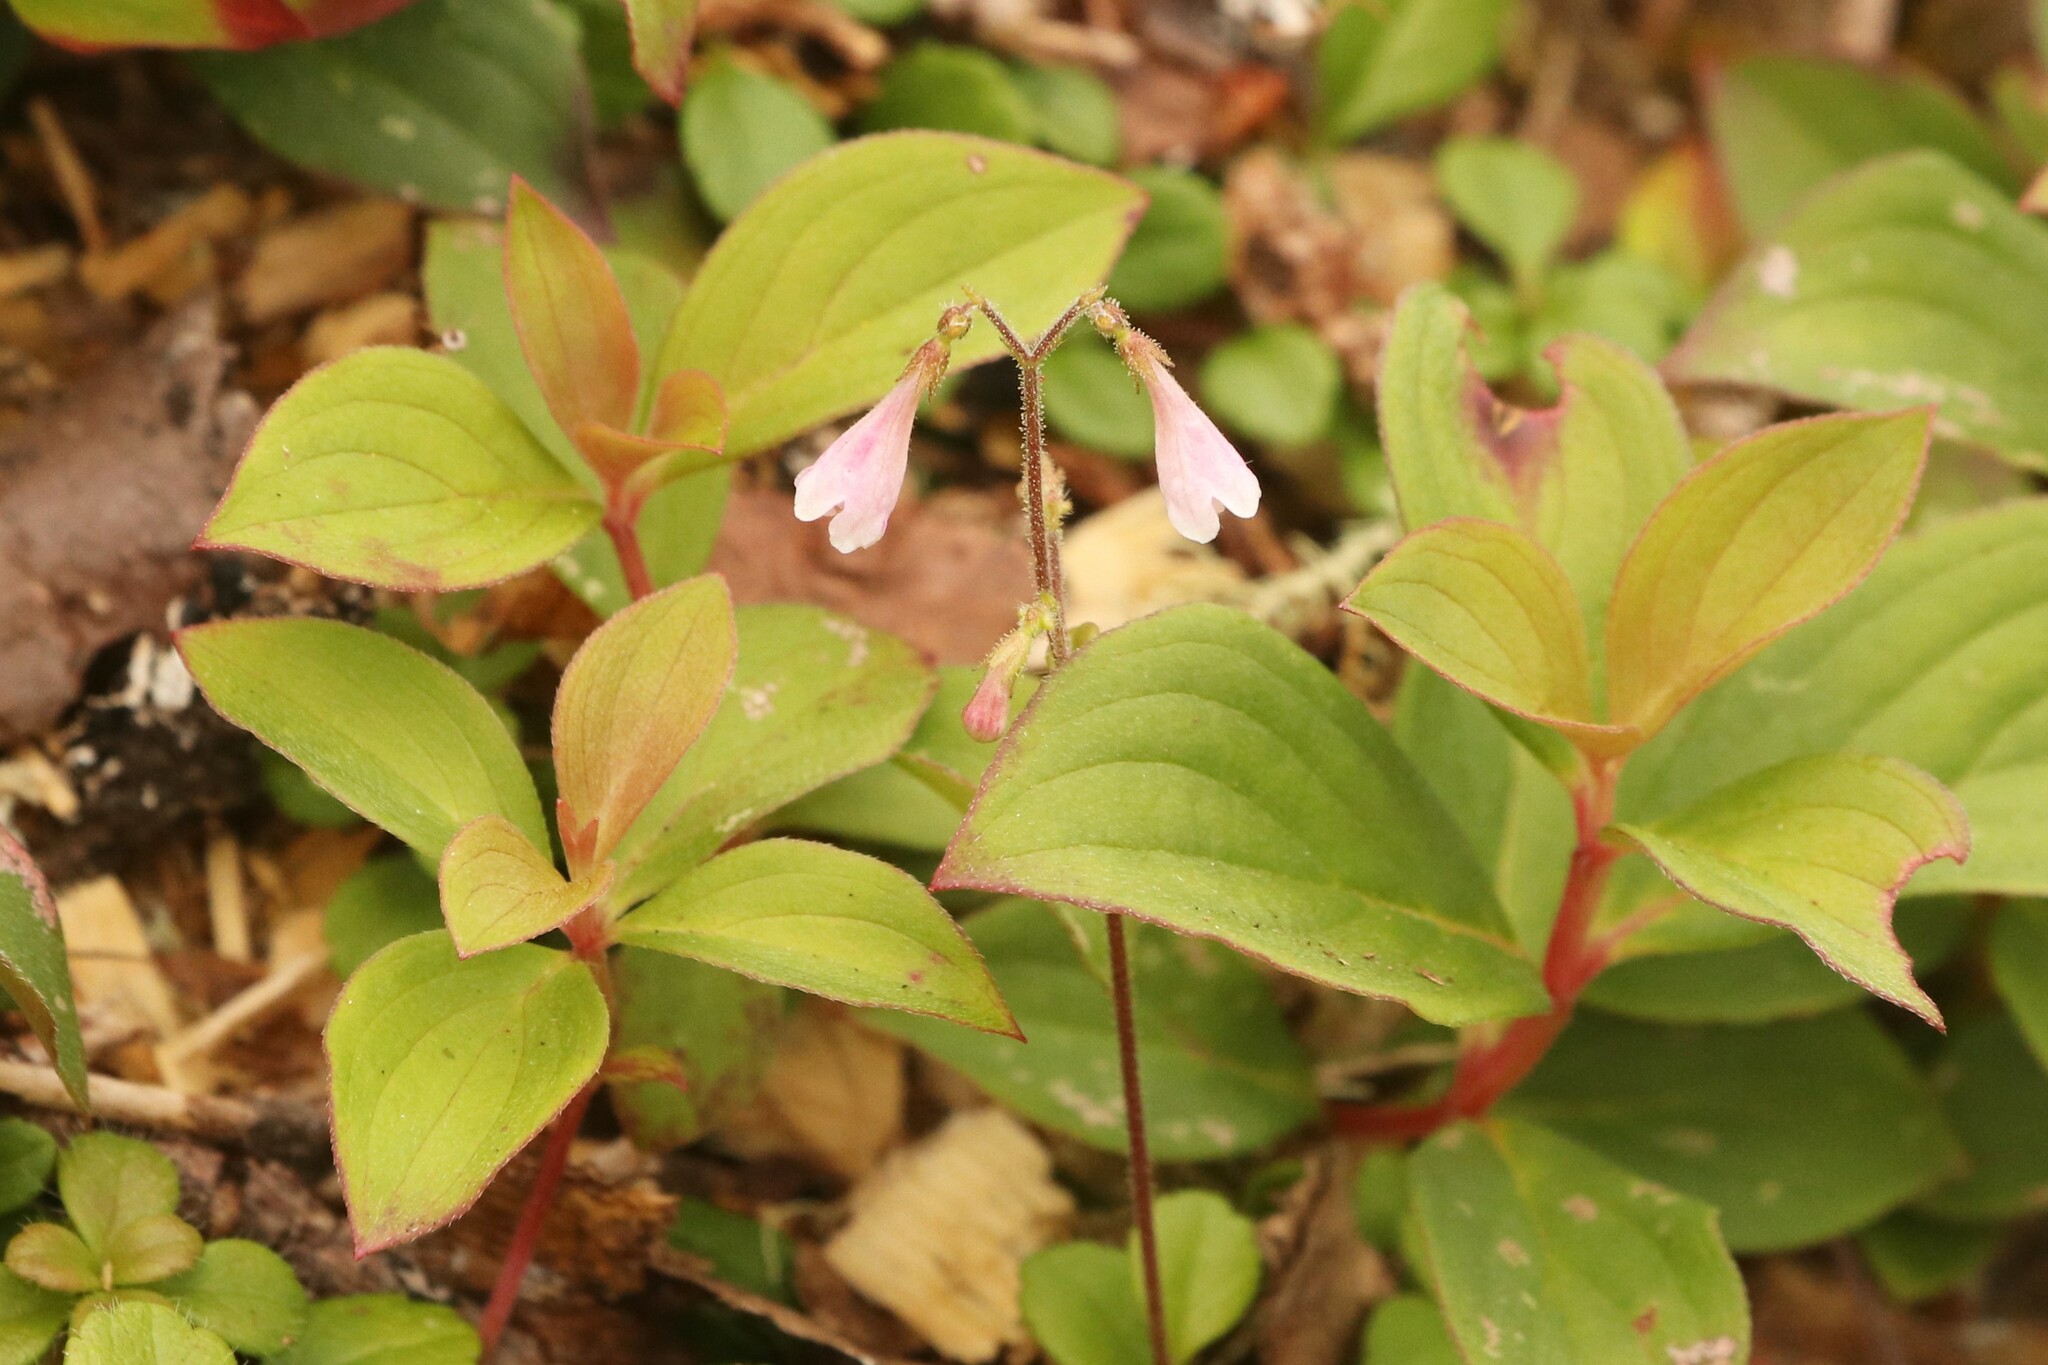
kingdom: Plantae
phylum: Tracheophyta
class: Magnoliopsida
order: Dipsacales
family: Caprifoliaceae
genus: Linnaea
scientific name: Linnaea borealis
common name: Twinflower
